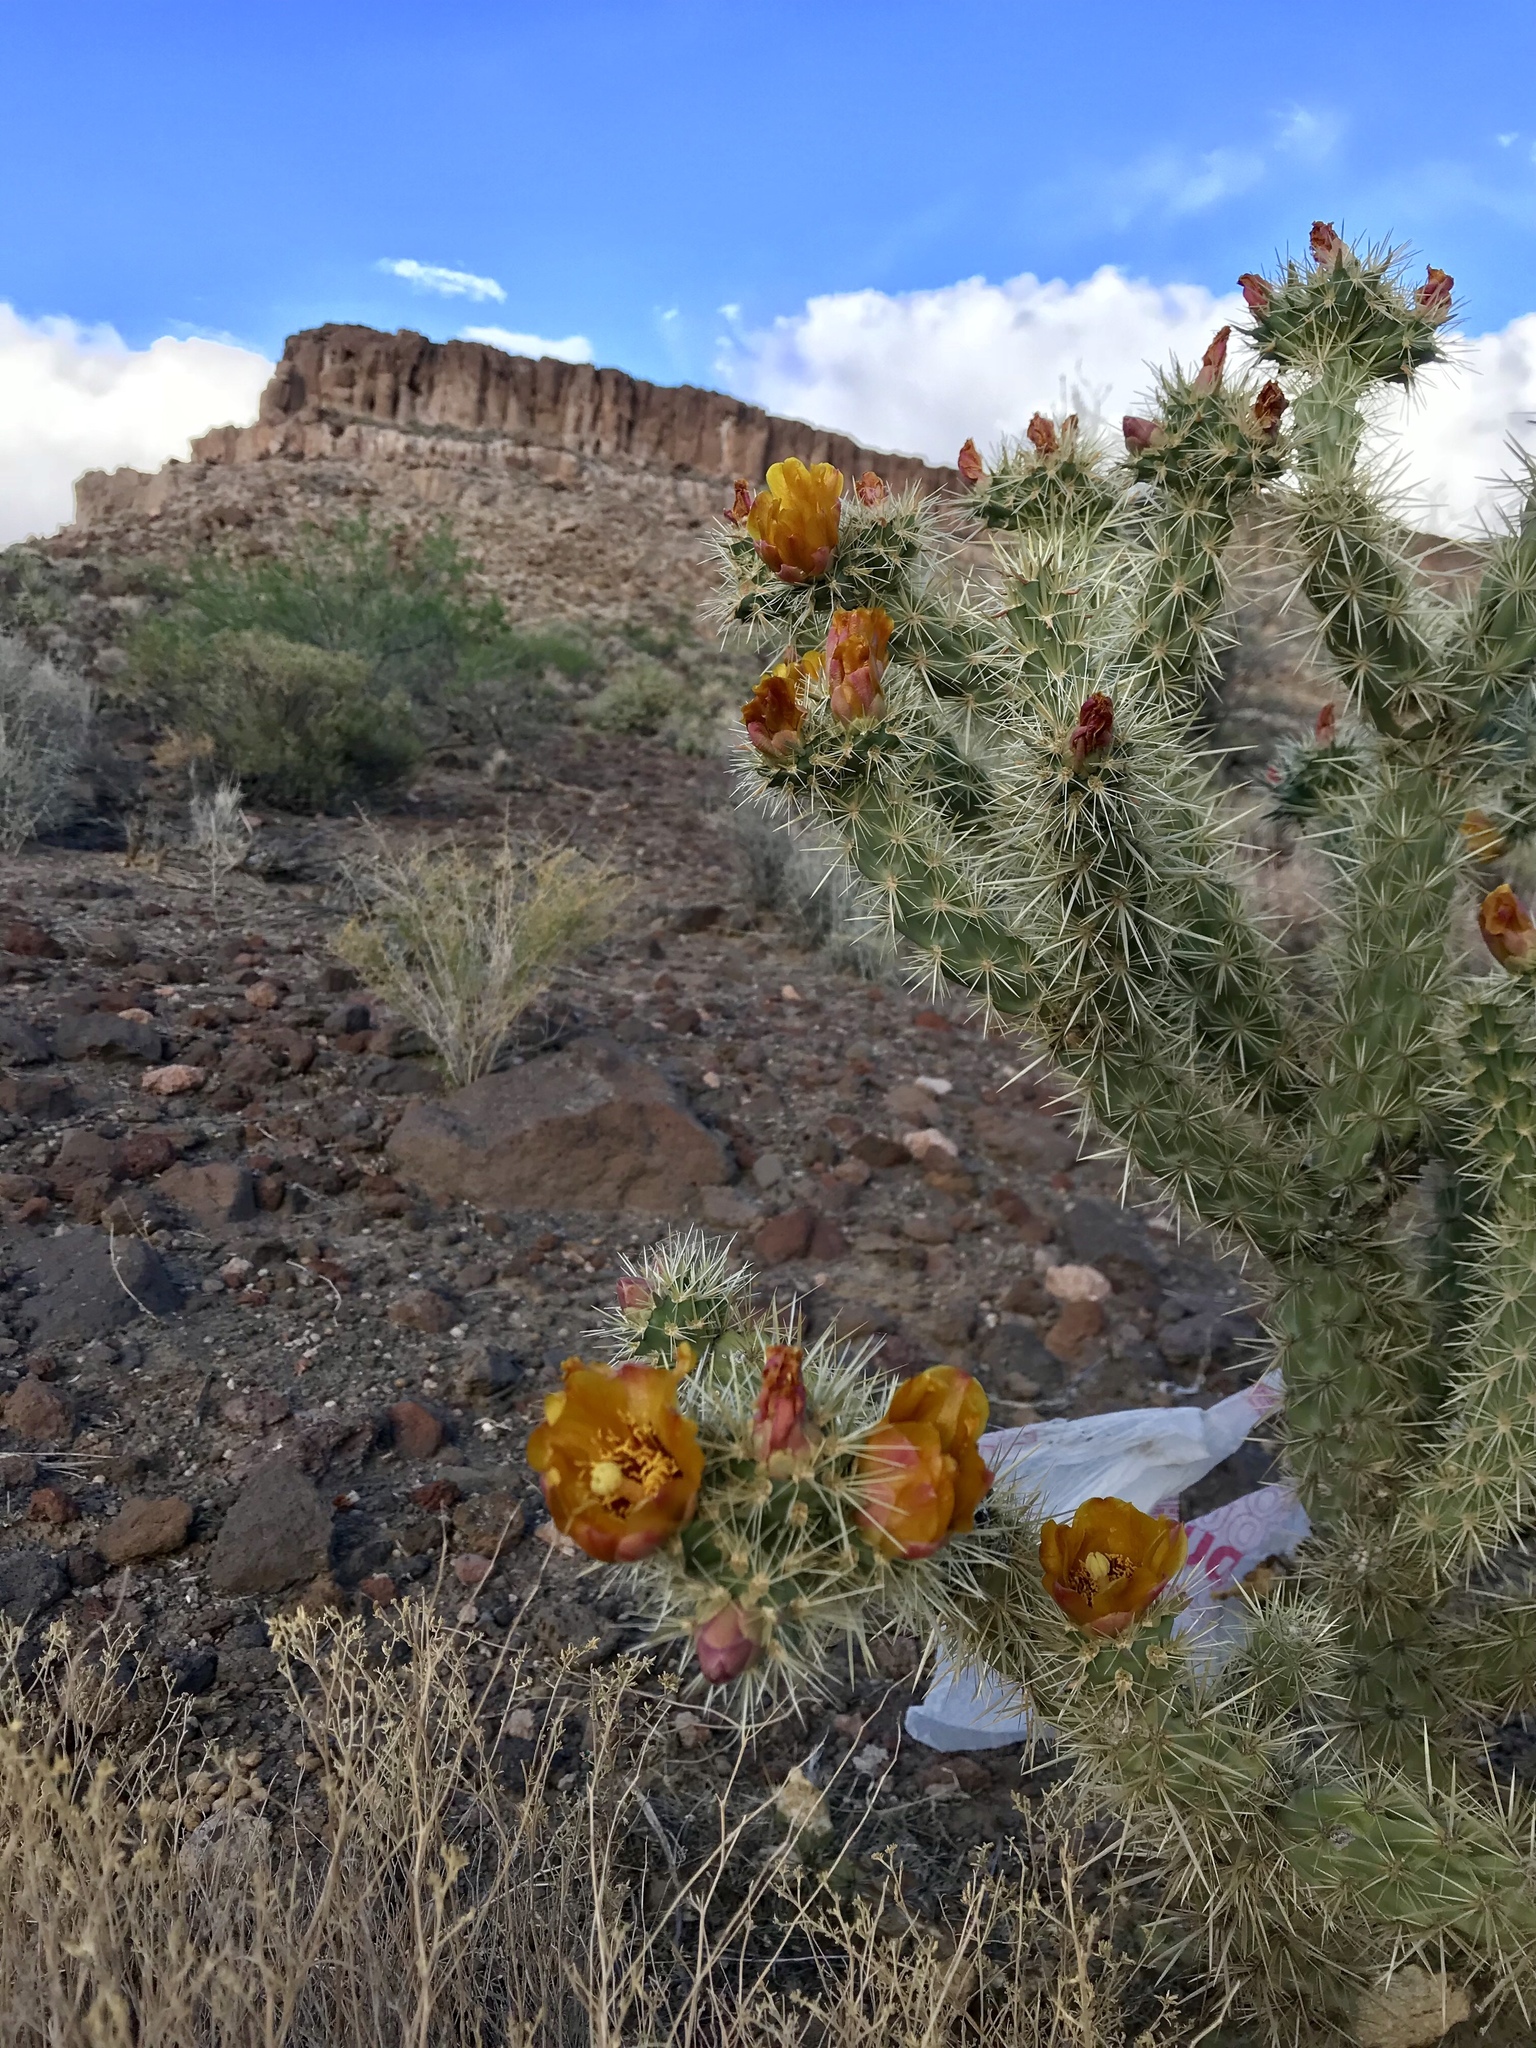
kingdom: Plantae
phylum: Tracheophyta
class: Magnoliopsida
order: Caryophyllales
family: Cactaceae
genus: Cylindropuntia
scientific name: Cylindropuntia acanthocarpa
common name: Buckhorn cholla
